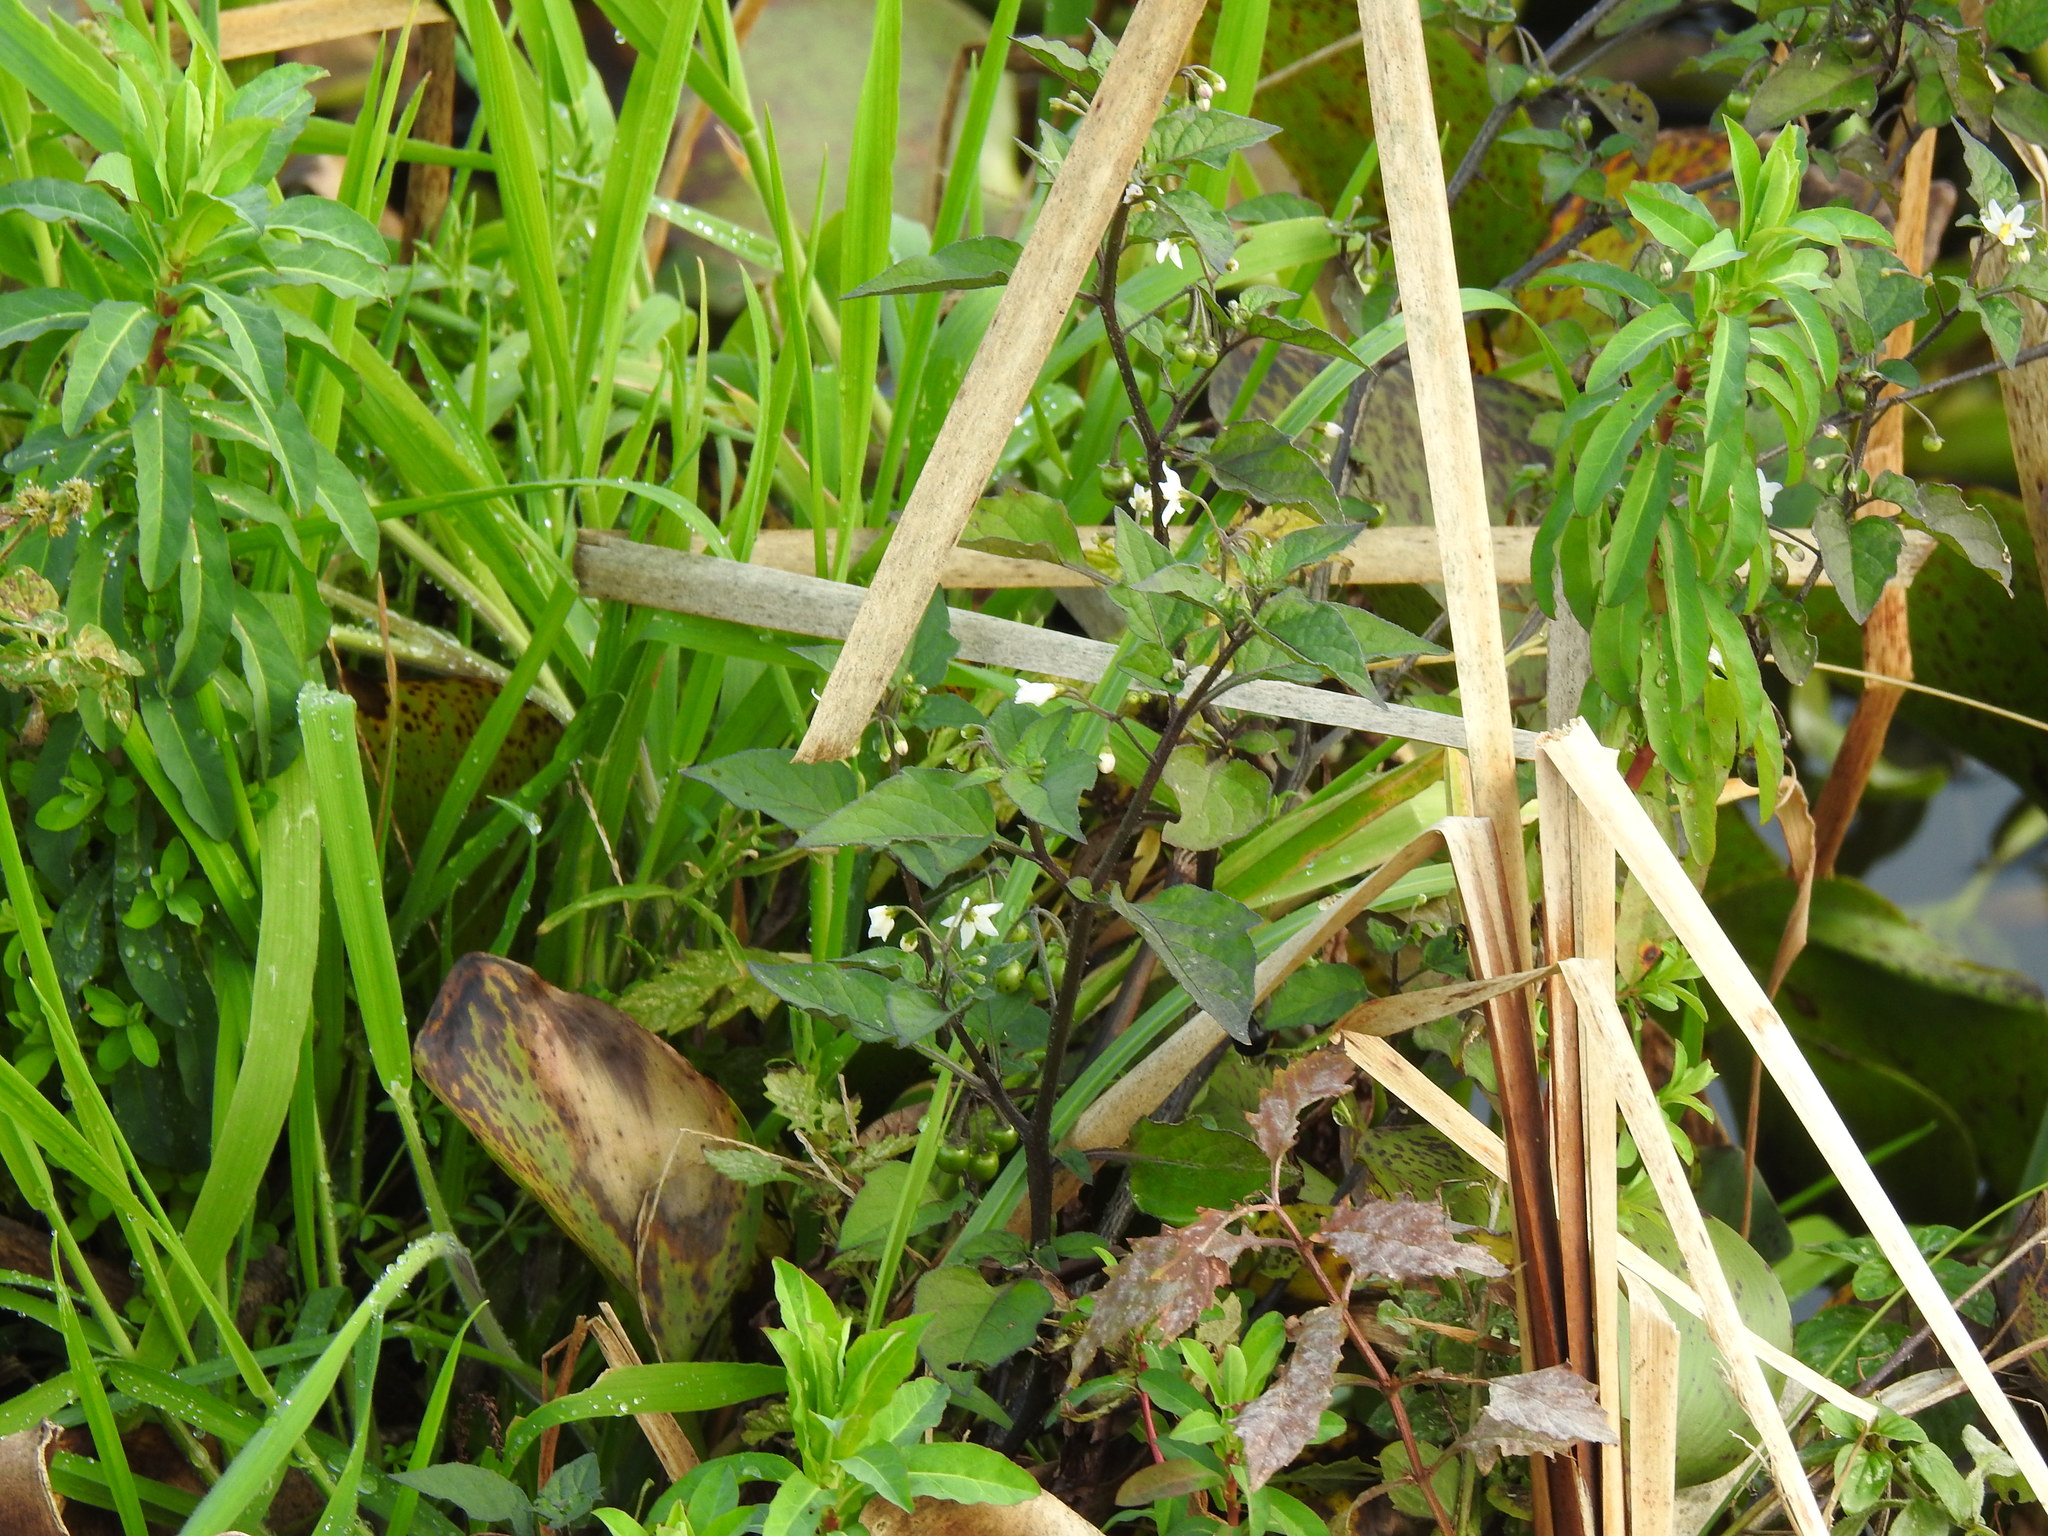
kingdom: Plantae
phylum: Tracheophyta
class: Magnoliopsida
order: Solanales
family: Solanaceae
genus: Solanum
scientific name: Solanum nigrum
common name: Black nightshade
